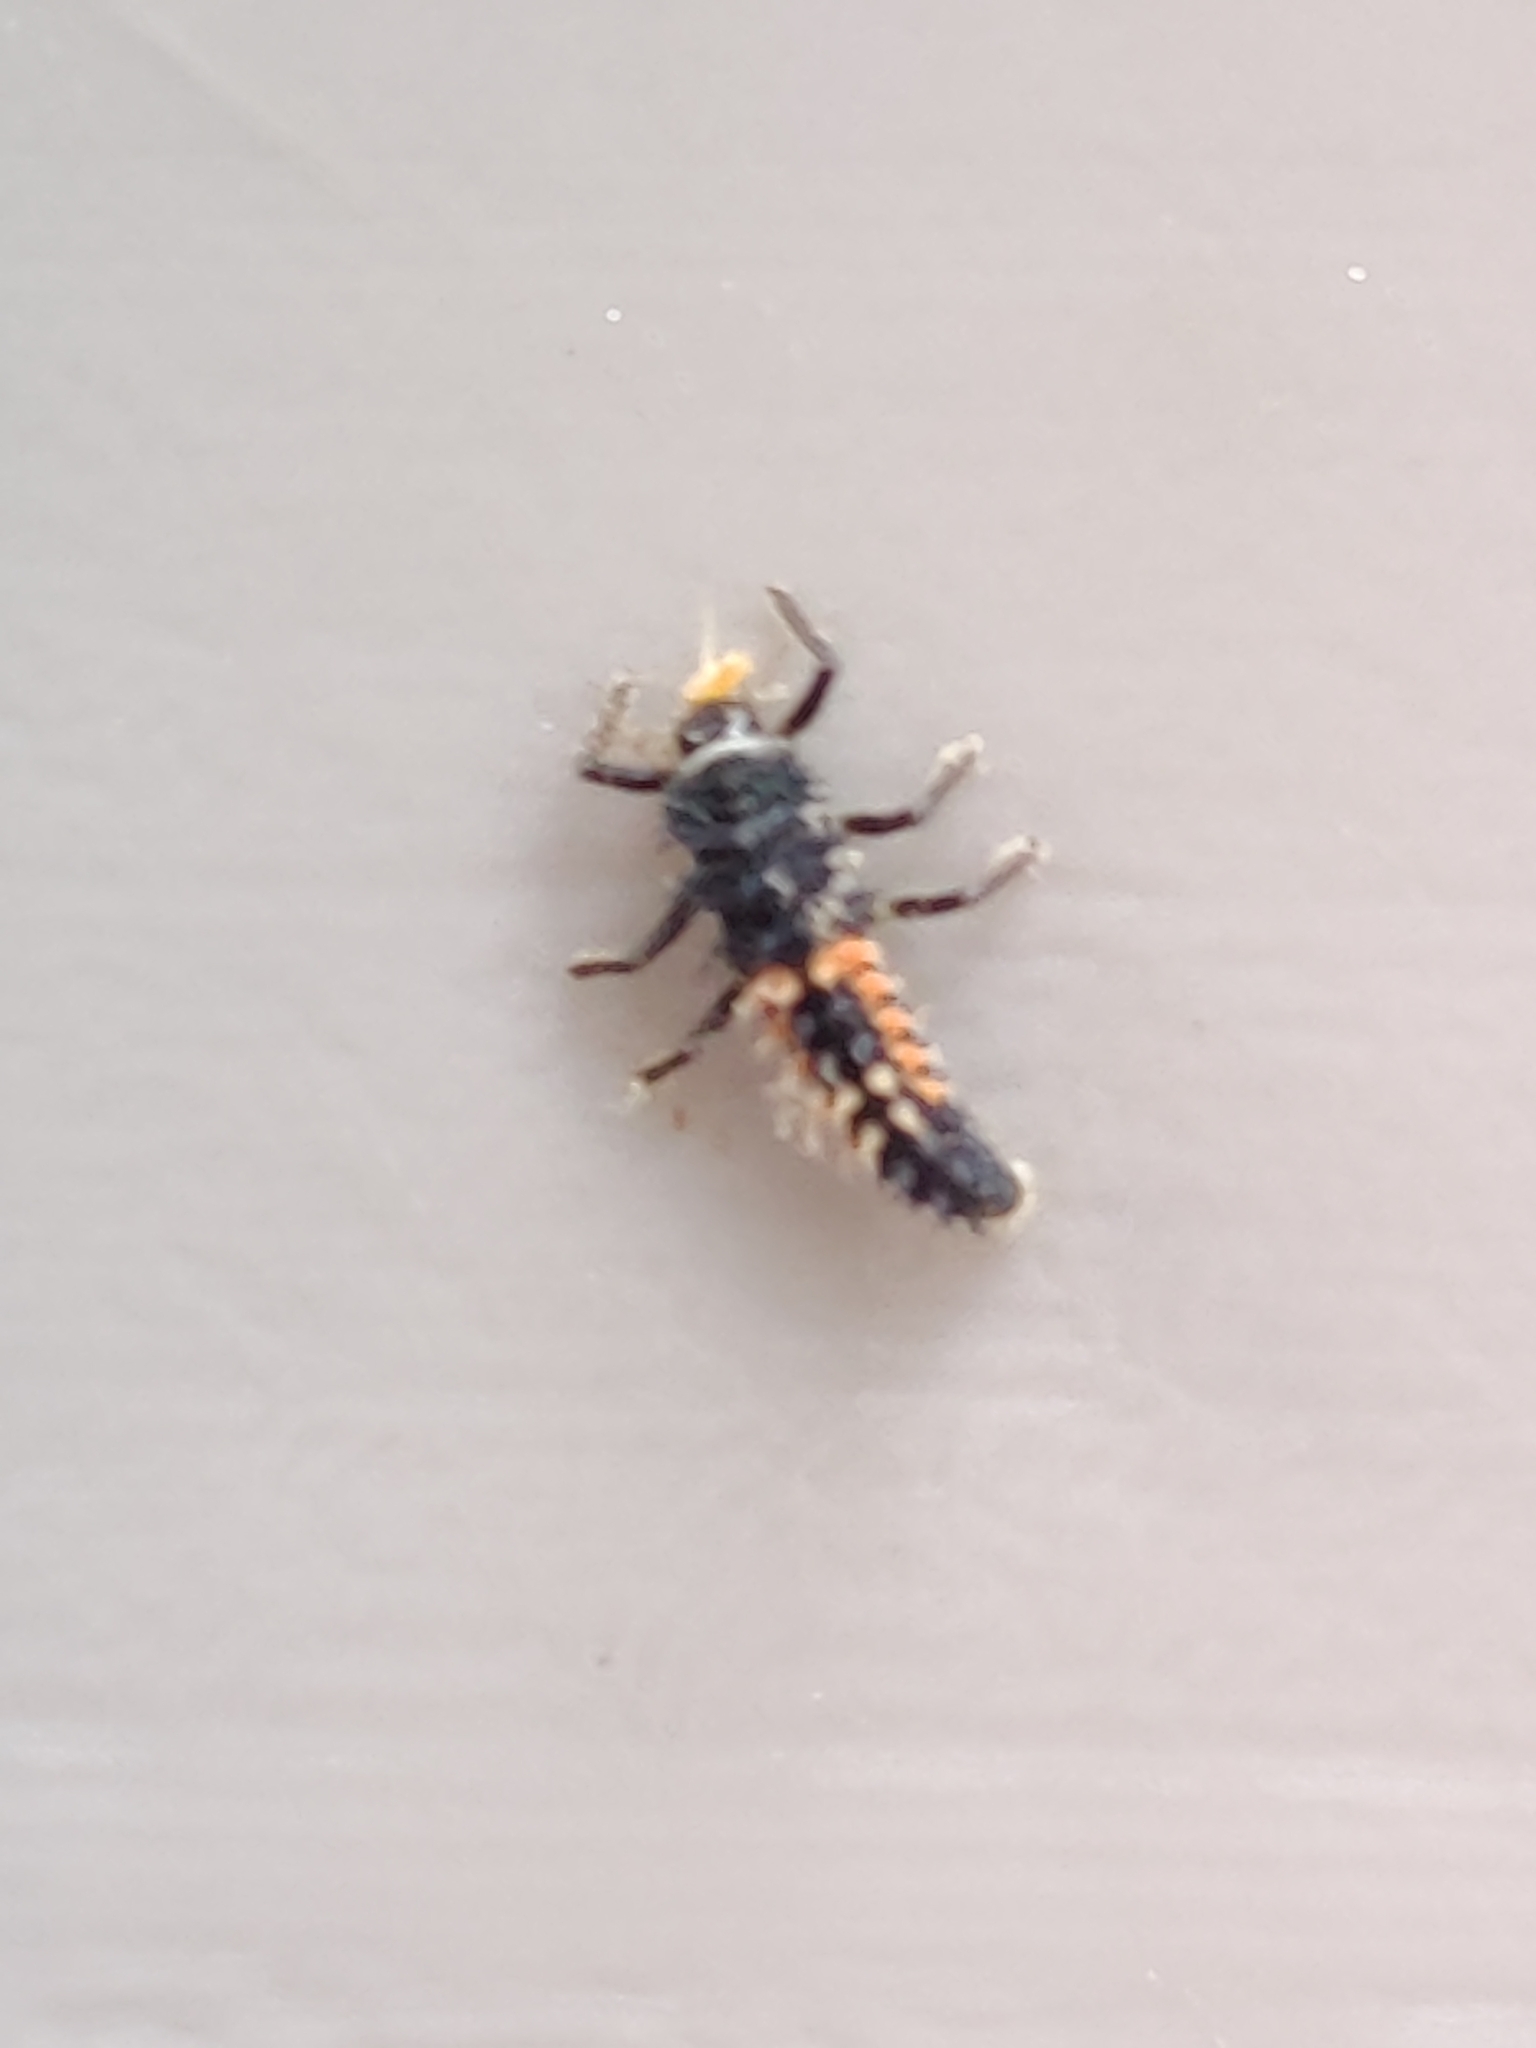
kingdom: Animalia
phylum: Arthropoda
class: Insecta
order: Coleoptera
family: Coccinellidae
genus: Harmonia
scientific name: Harmonia axyridis
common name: Harlequin ladybird
